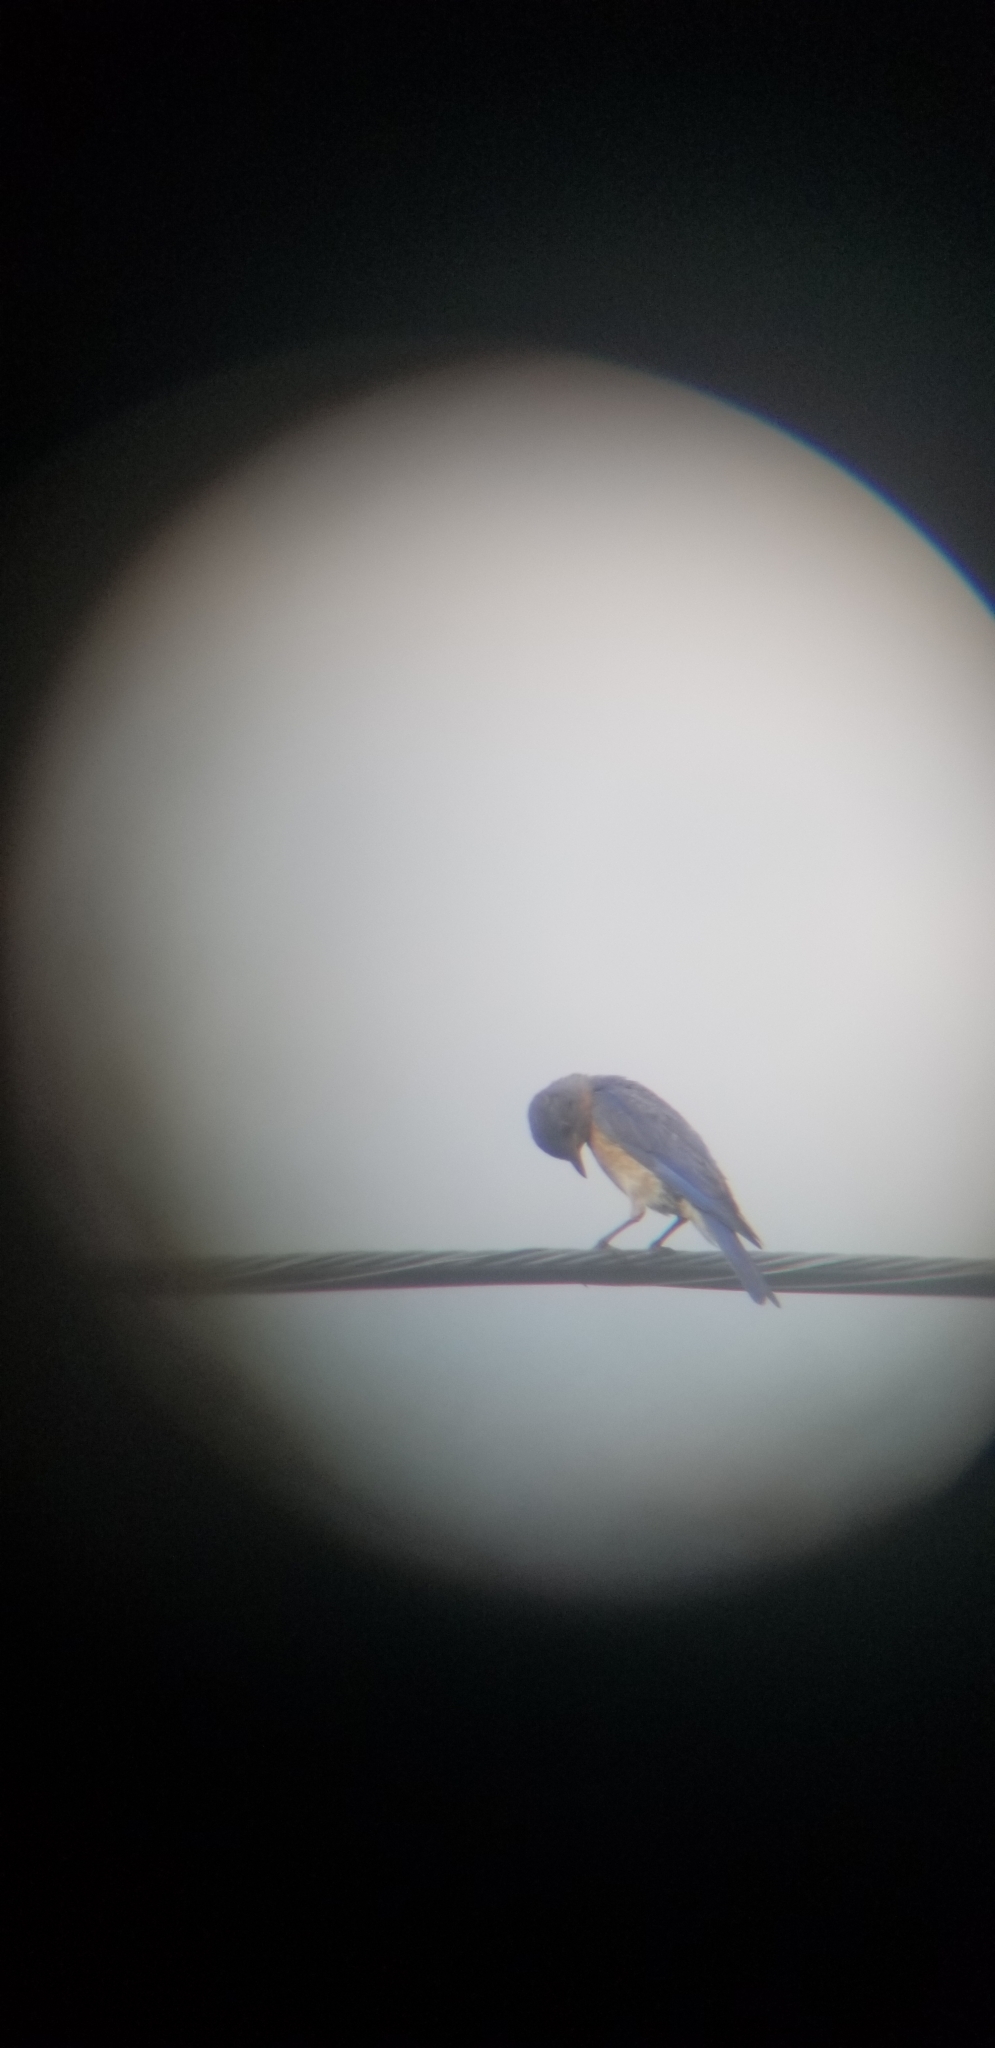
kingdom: Animalia
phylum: Chordata
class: Aves
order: Passeriformes
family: Turdidae
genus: Sialia
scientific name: Sialia sialis
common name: Eastern bluebird
